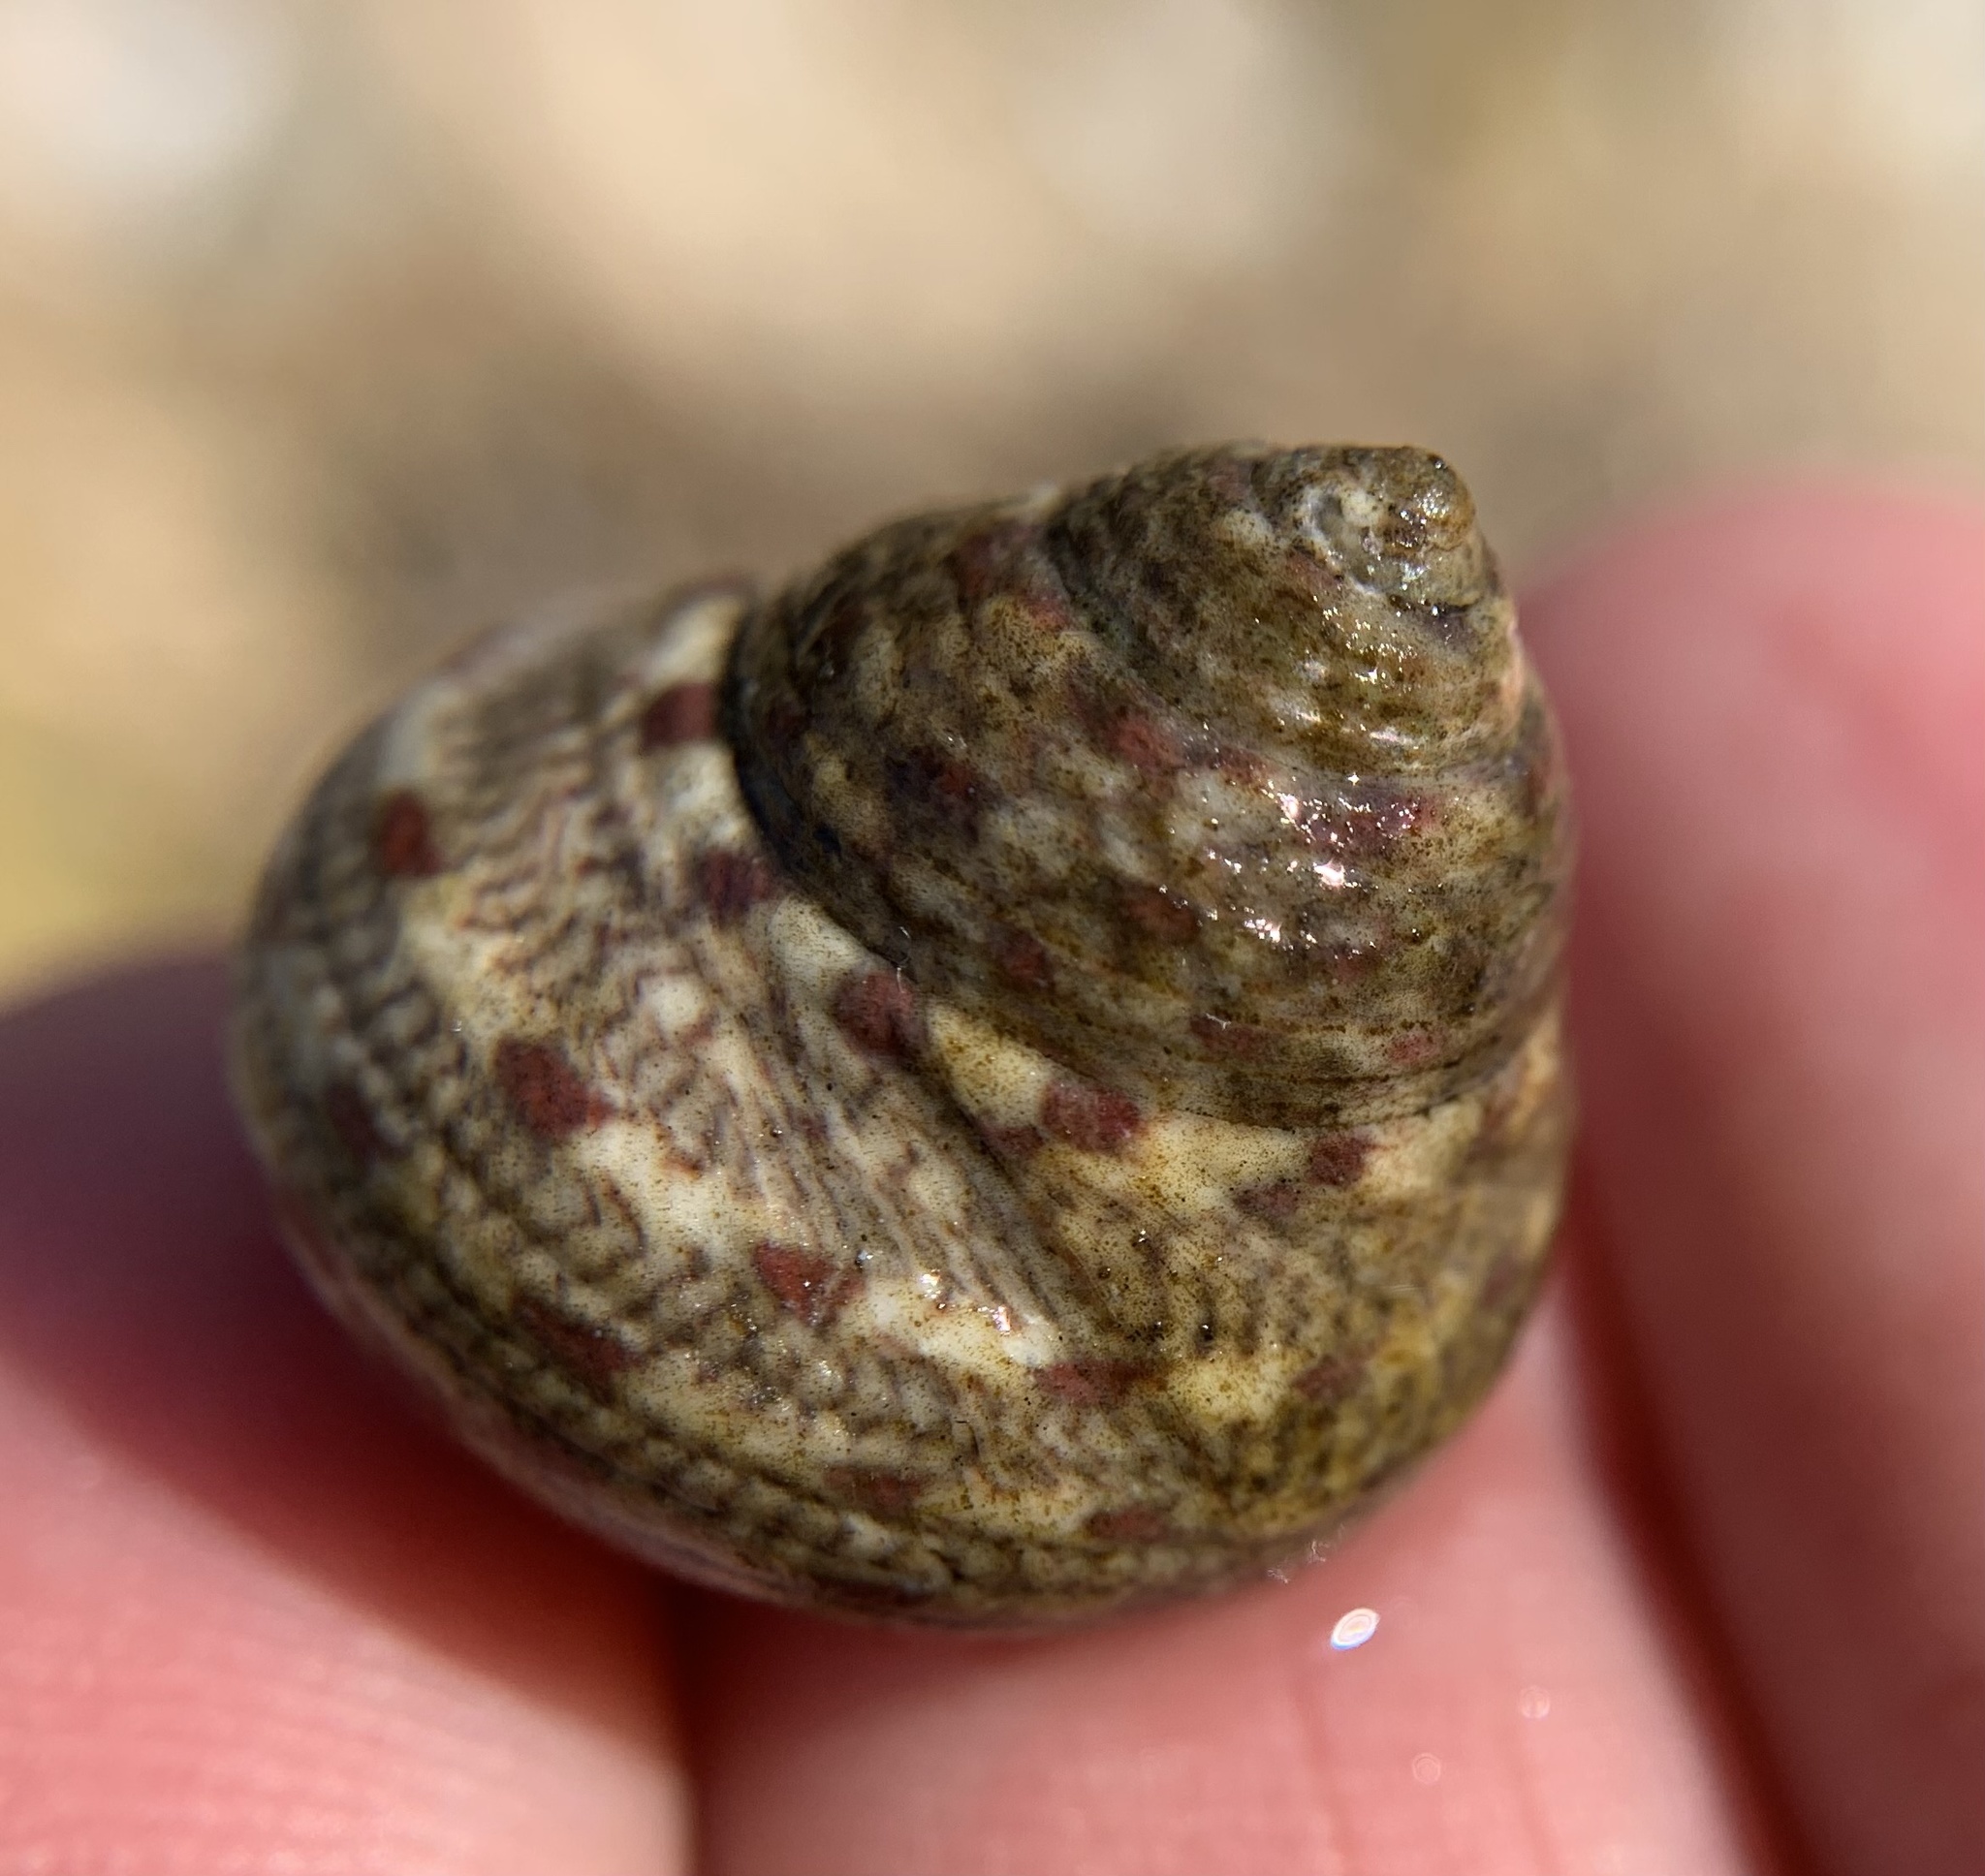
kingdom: Animalia
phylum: Mollusca
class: Gastropoda
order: Trochida
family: Trochidae
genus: Phorcus
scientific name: Phorcus articulatus
